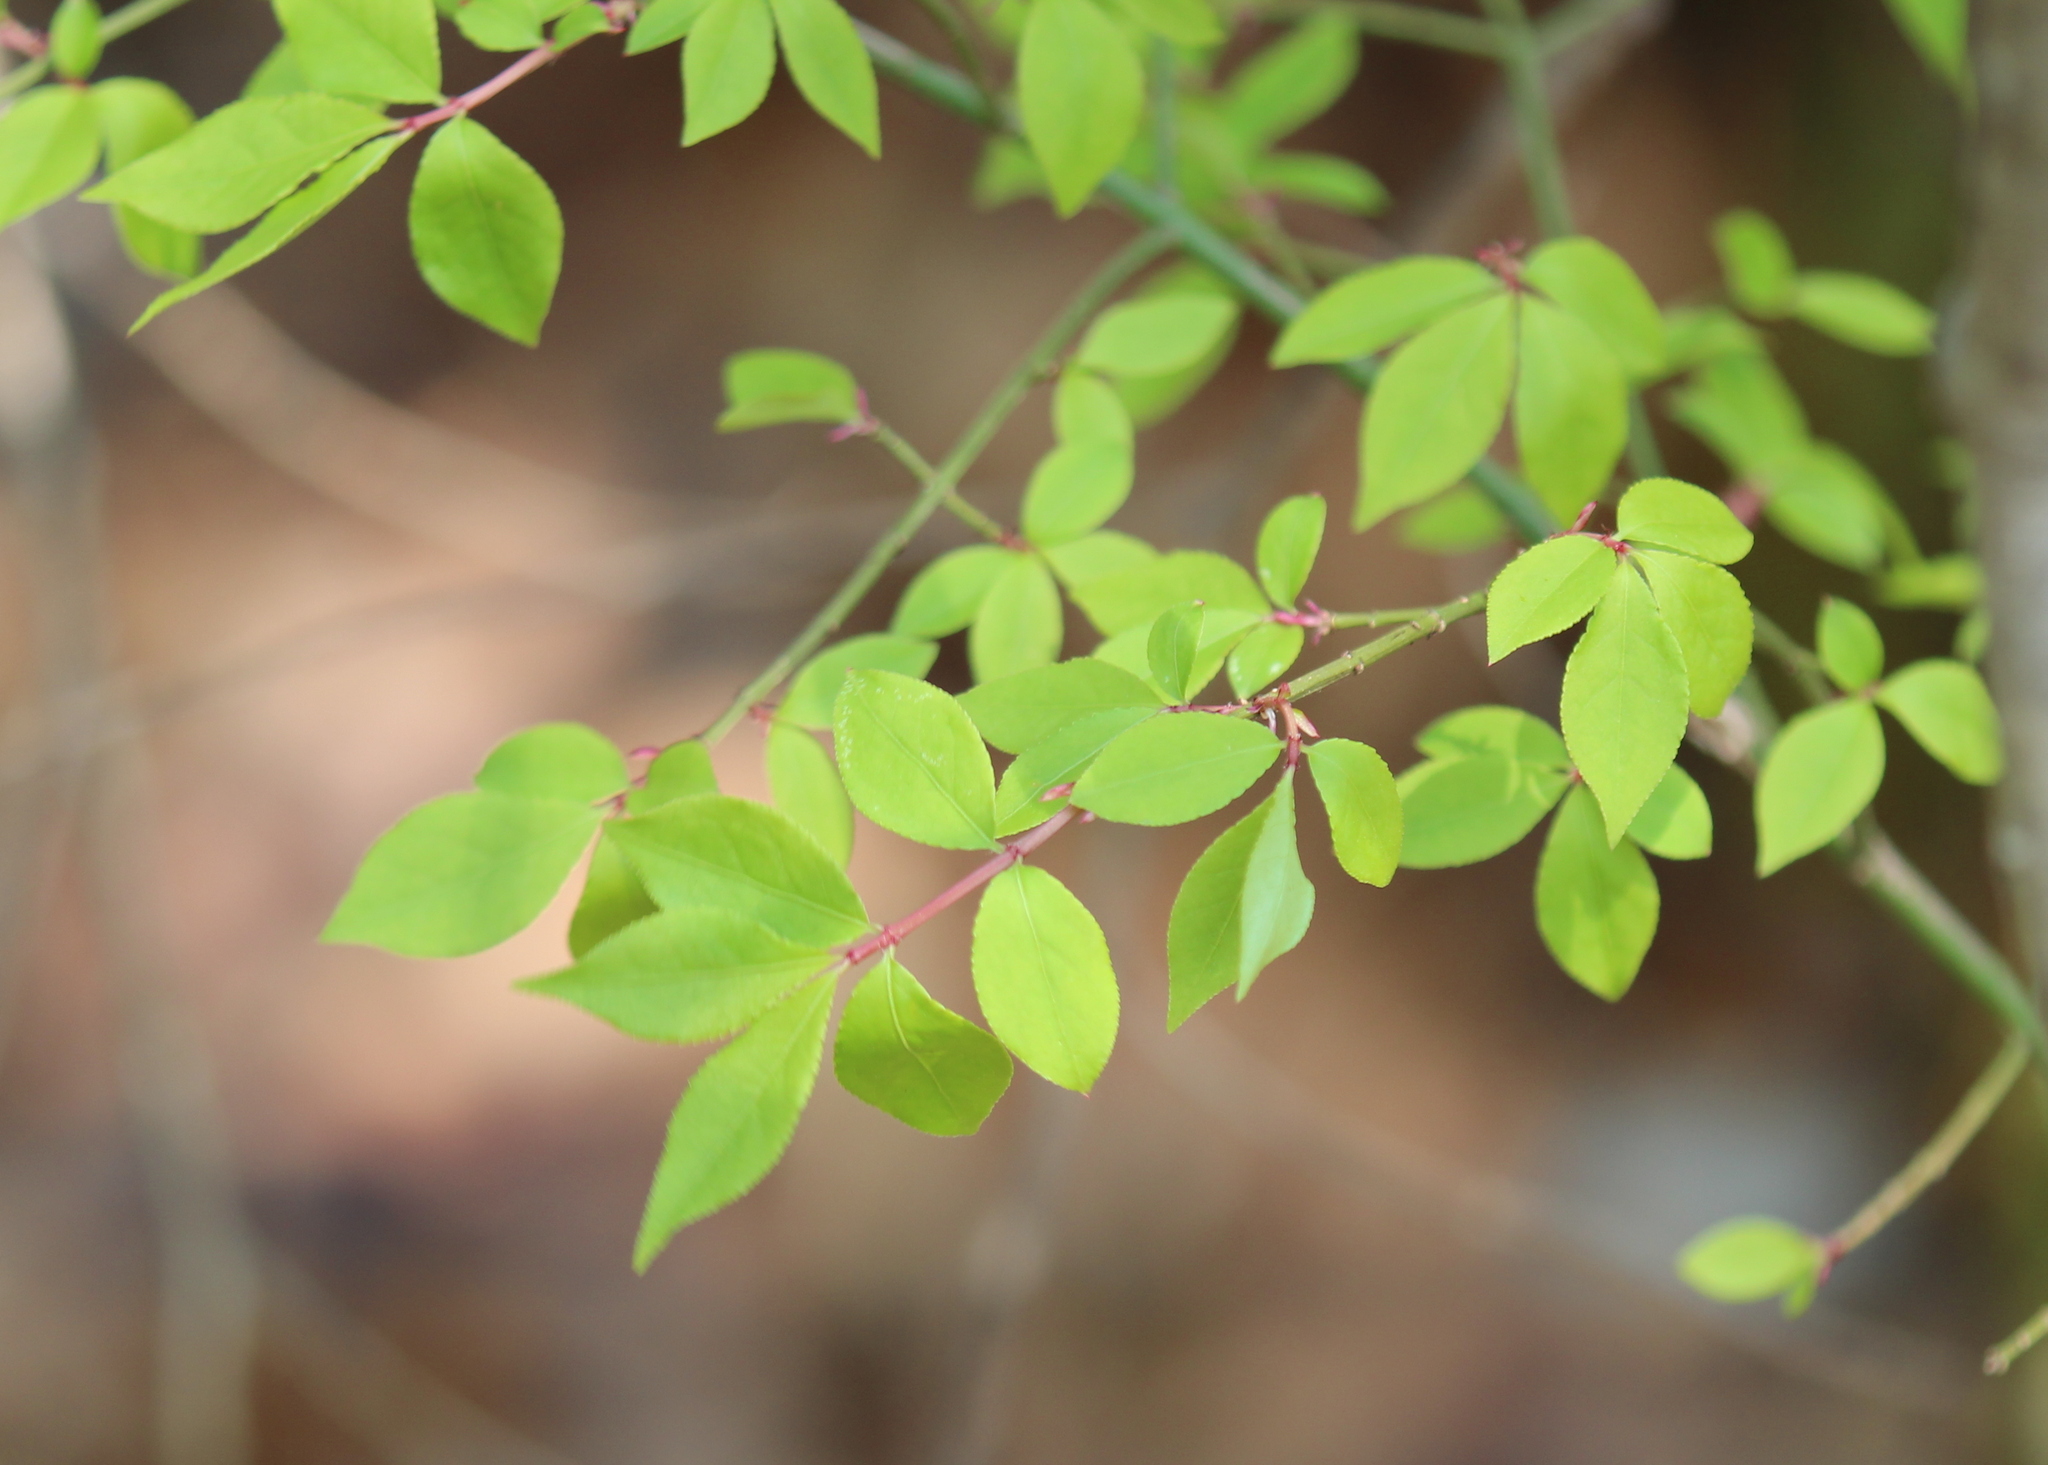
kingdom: Plantae
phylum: Tracheophyta
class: Magnoliopsida
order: Celastrales
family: Celastraceae
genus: Euonymus
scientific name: Euonymus alatus
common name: Winged euonymus
